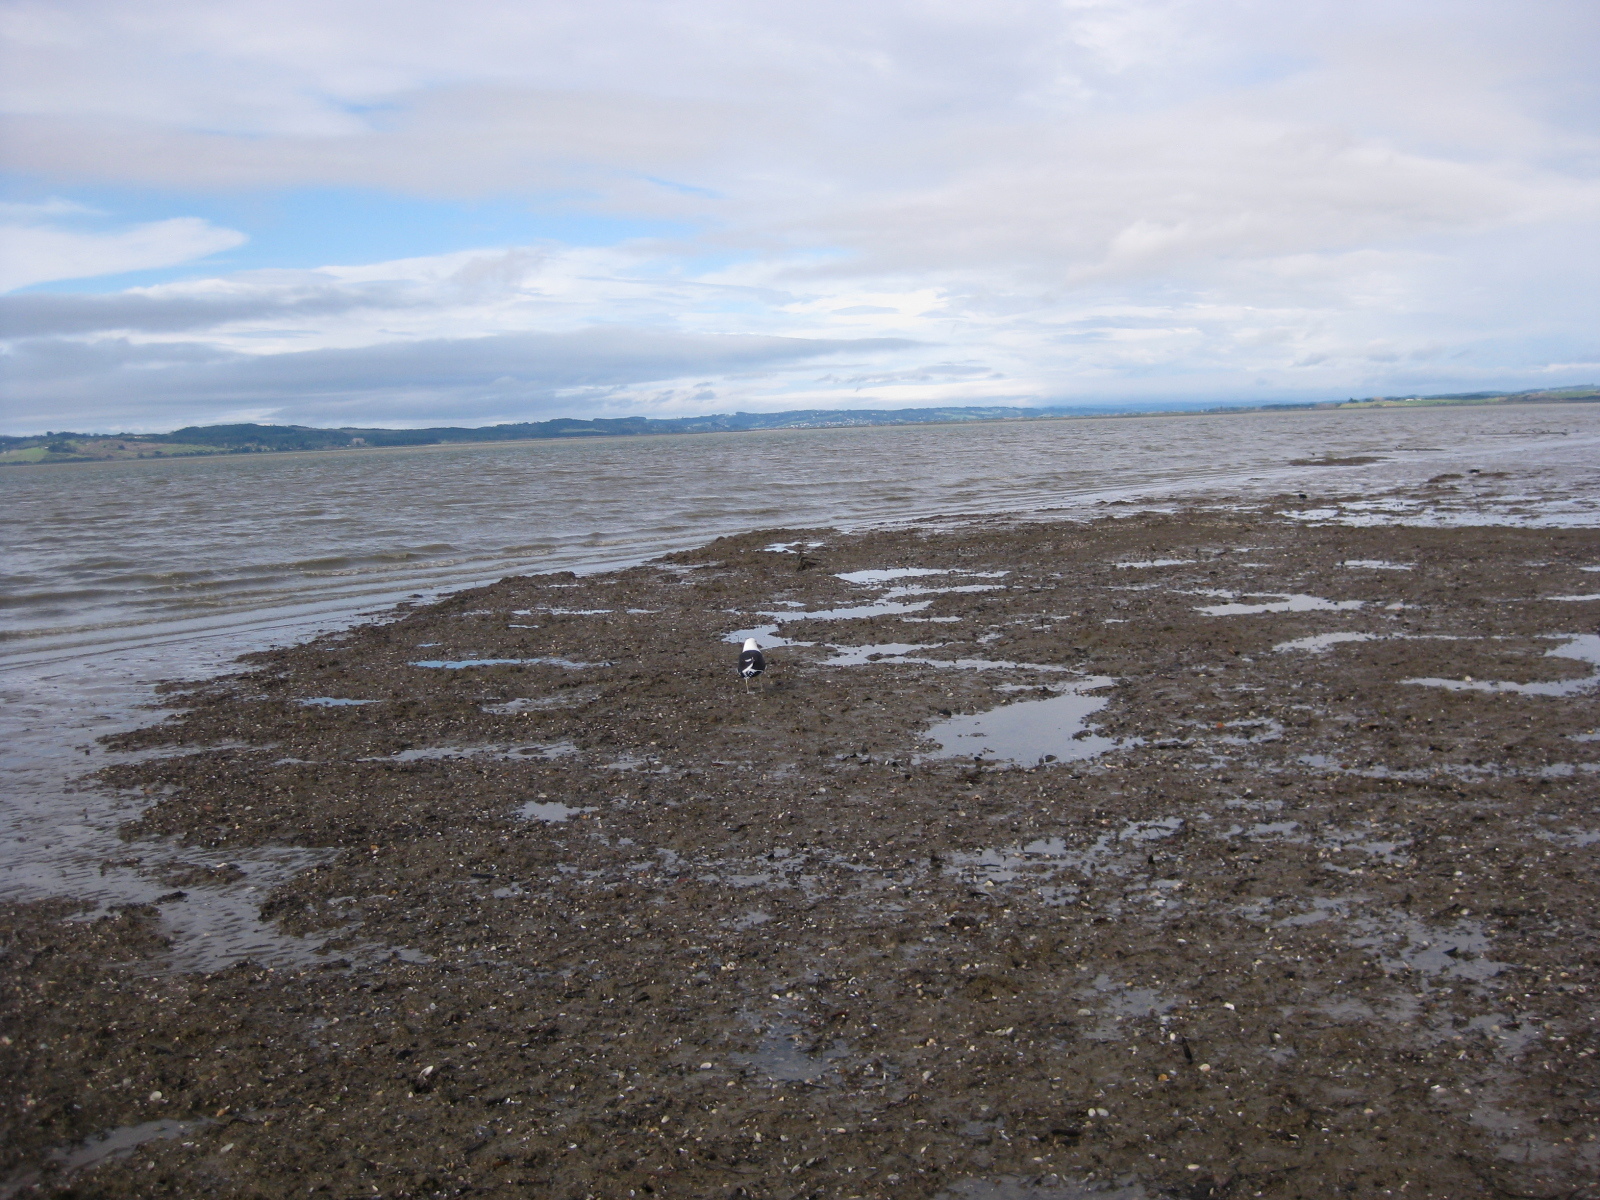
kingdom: Animalia
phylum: Mollusca
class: Bivalvia
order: Mytilida
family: Mytilidae
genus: Arcuatula
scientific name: Arcuatula senhousia
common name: Asian mussel
